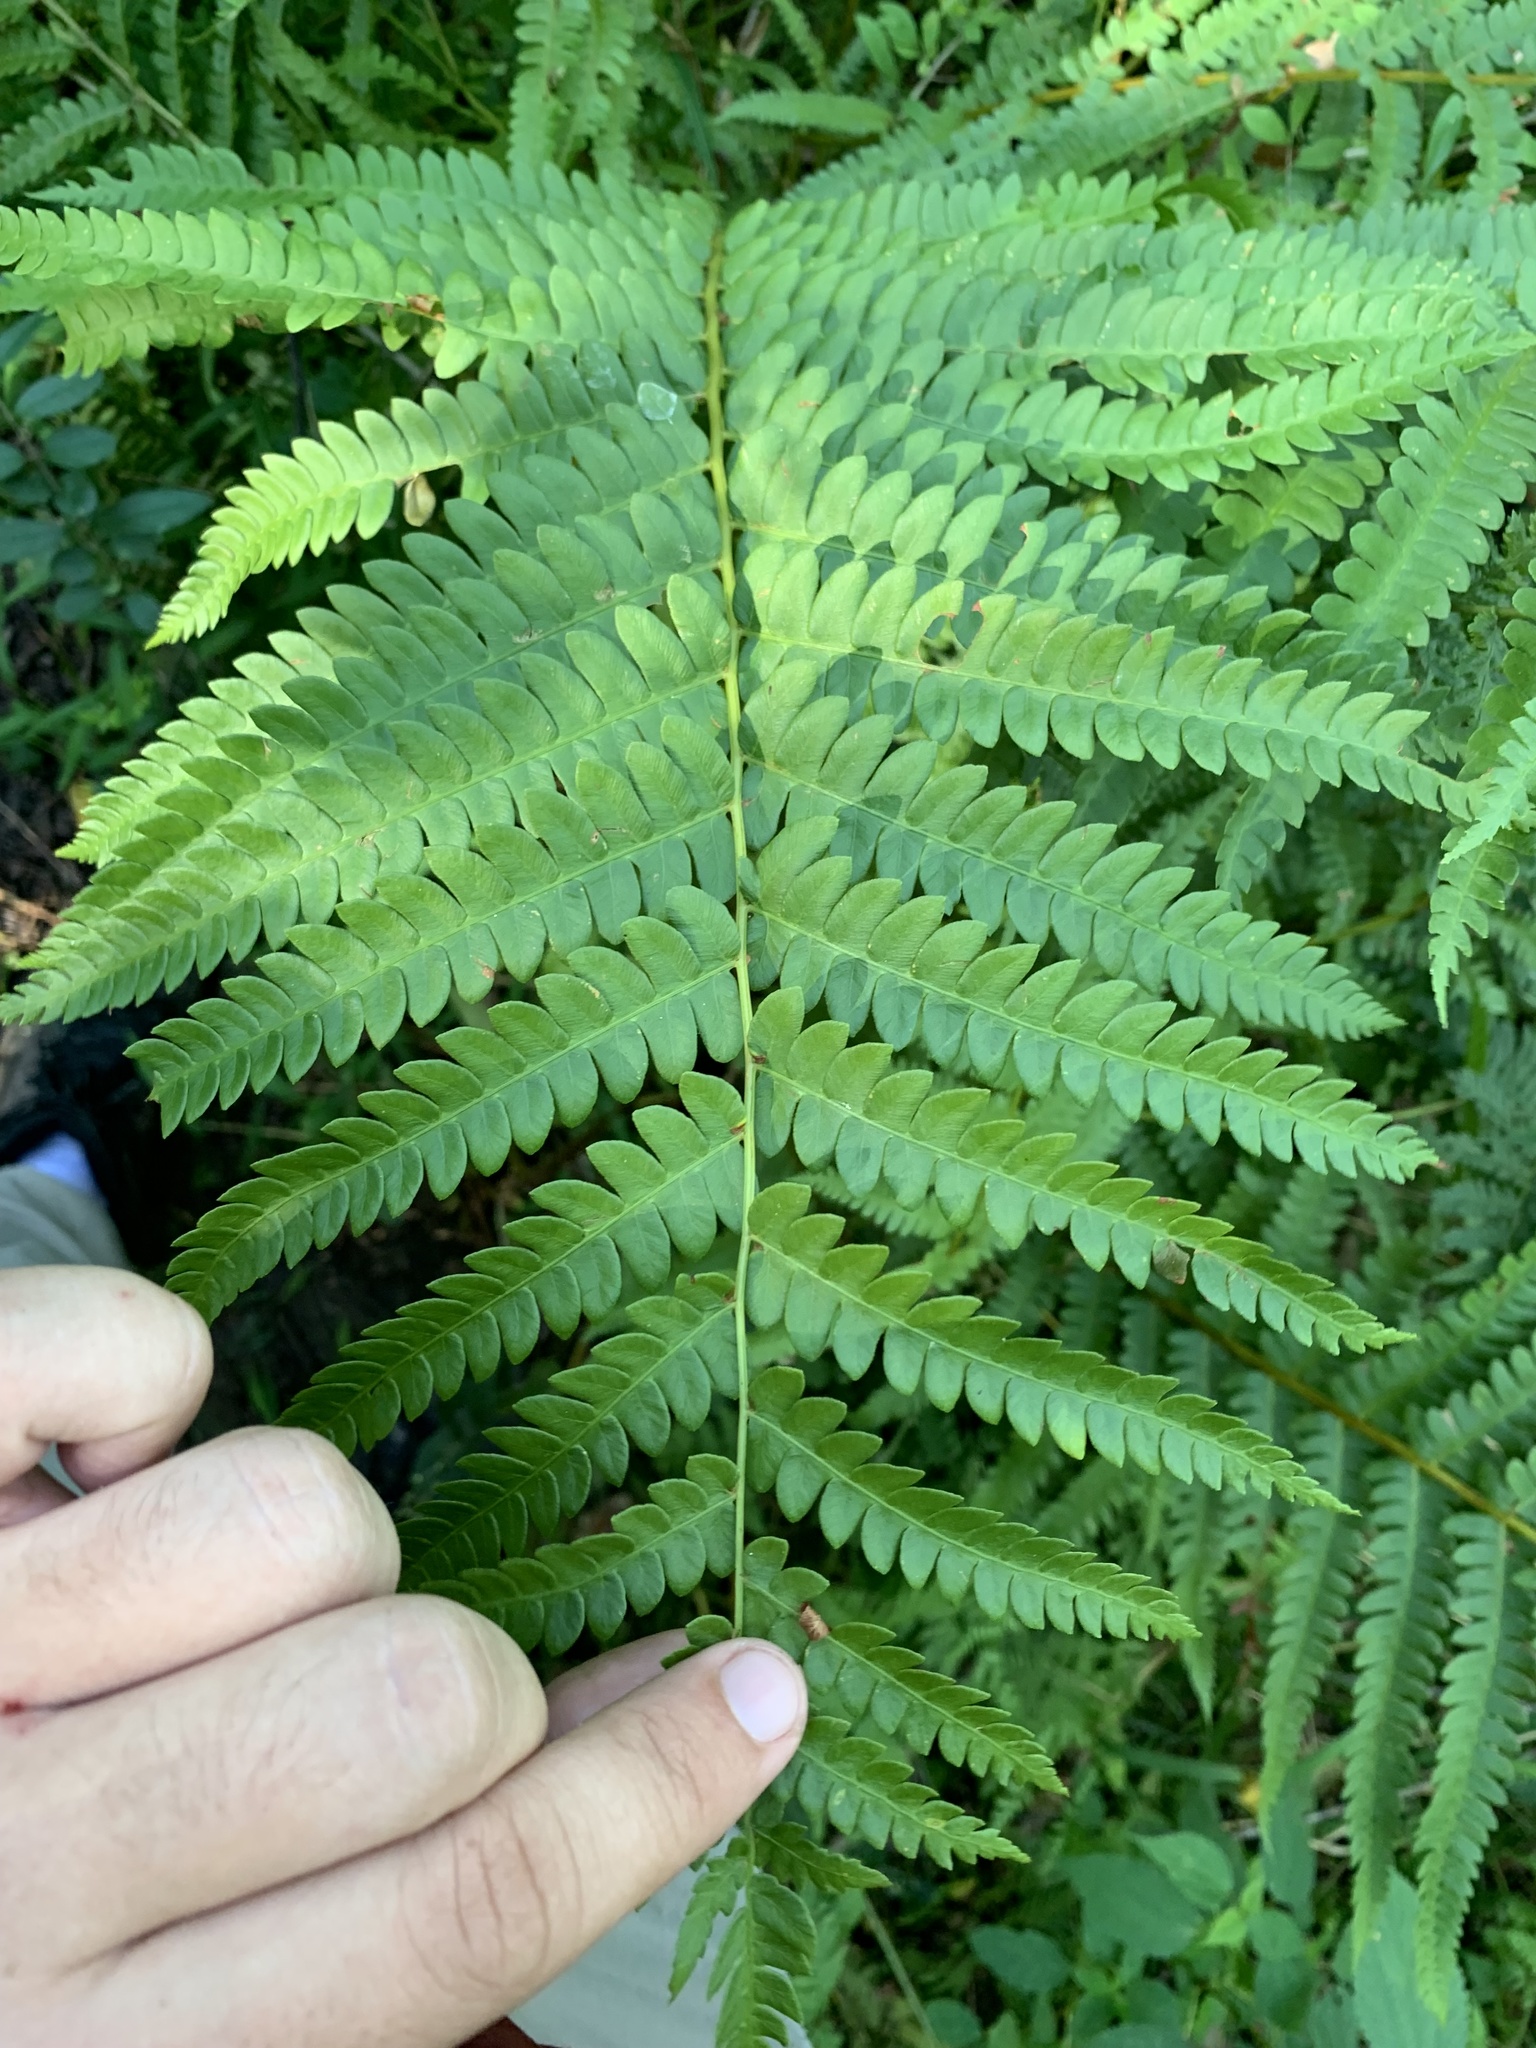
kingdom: Plantae
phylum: Tracheophyta
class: Polypodiopsida
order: Osmundales
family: Osmundaceae
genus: Osmundastrum
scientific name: Osmundastrum cinnamomeum
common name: Cinnamon fern
